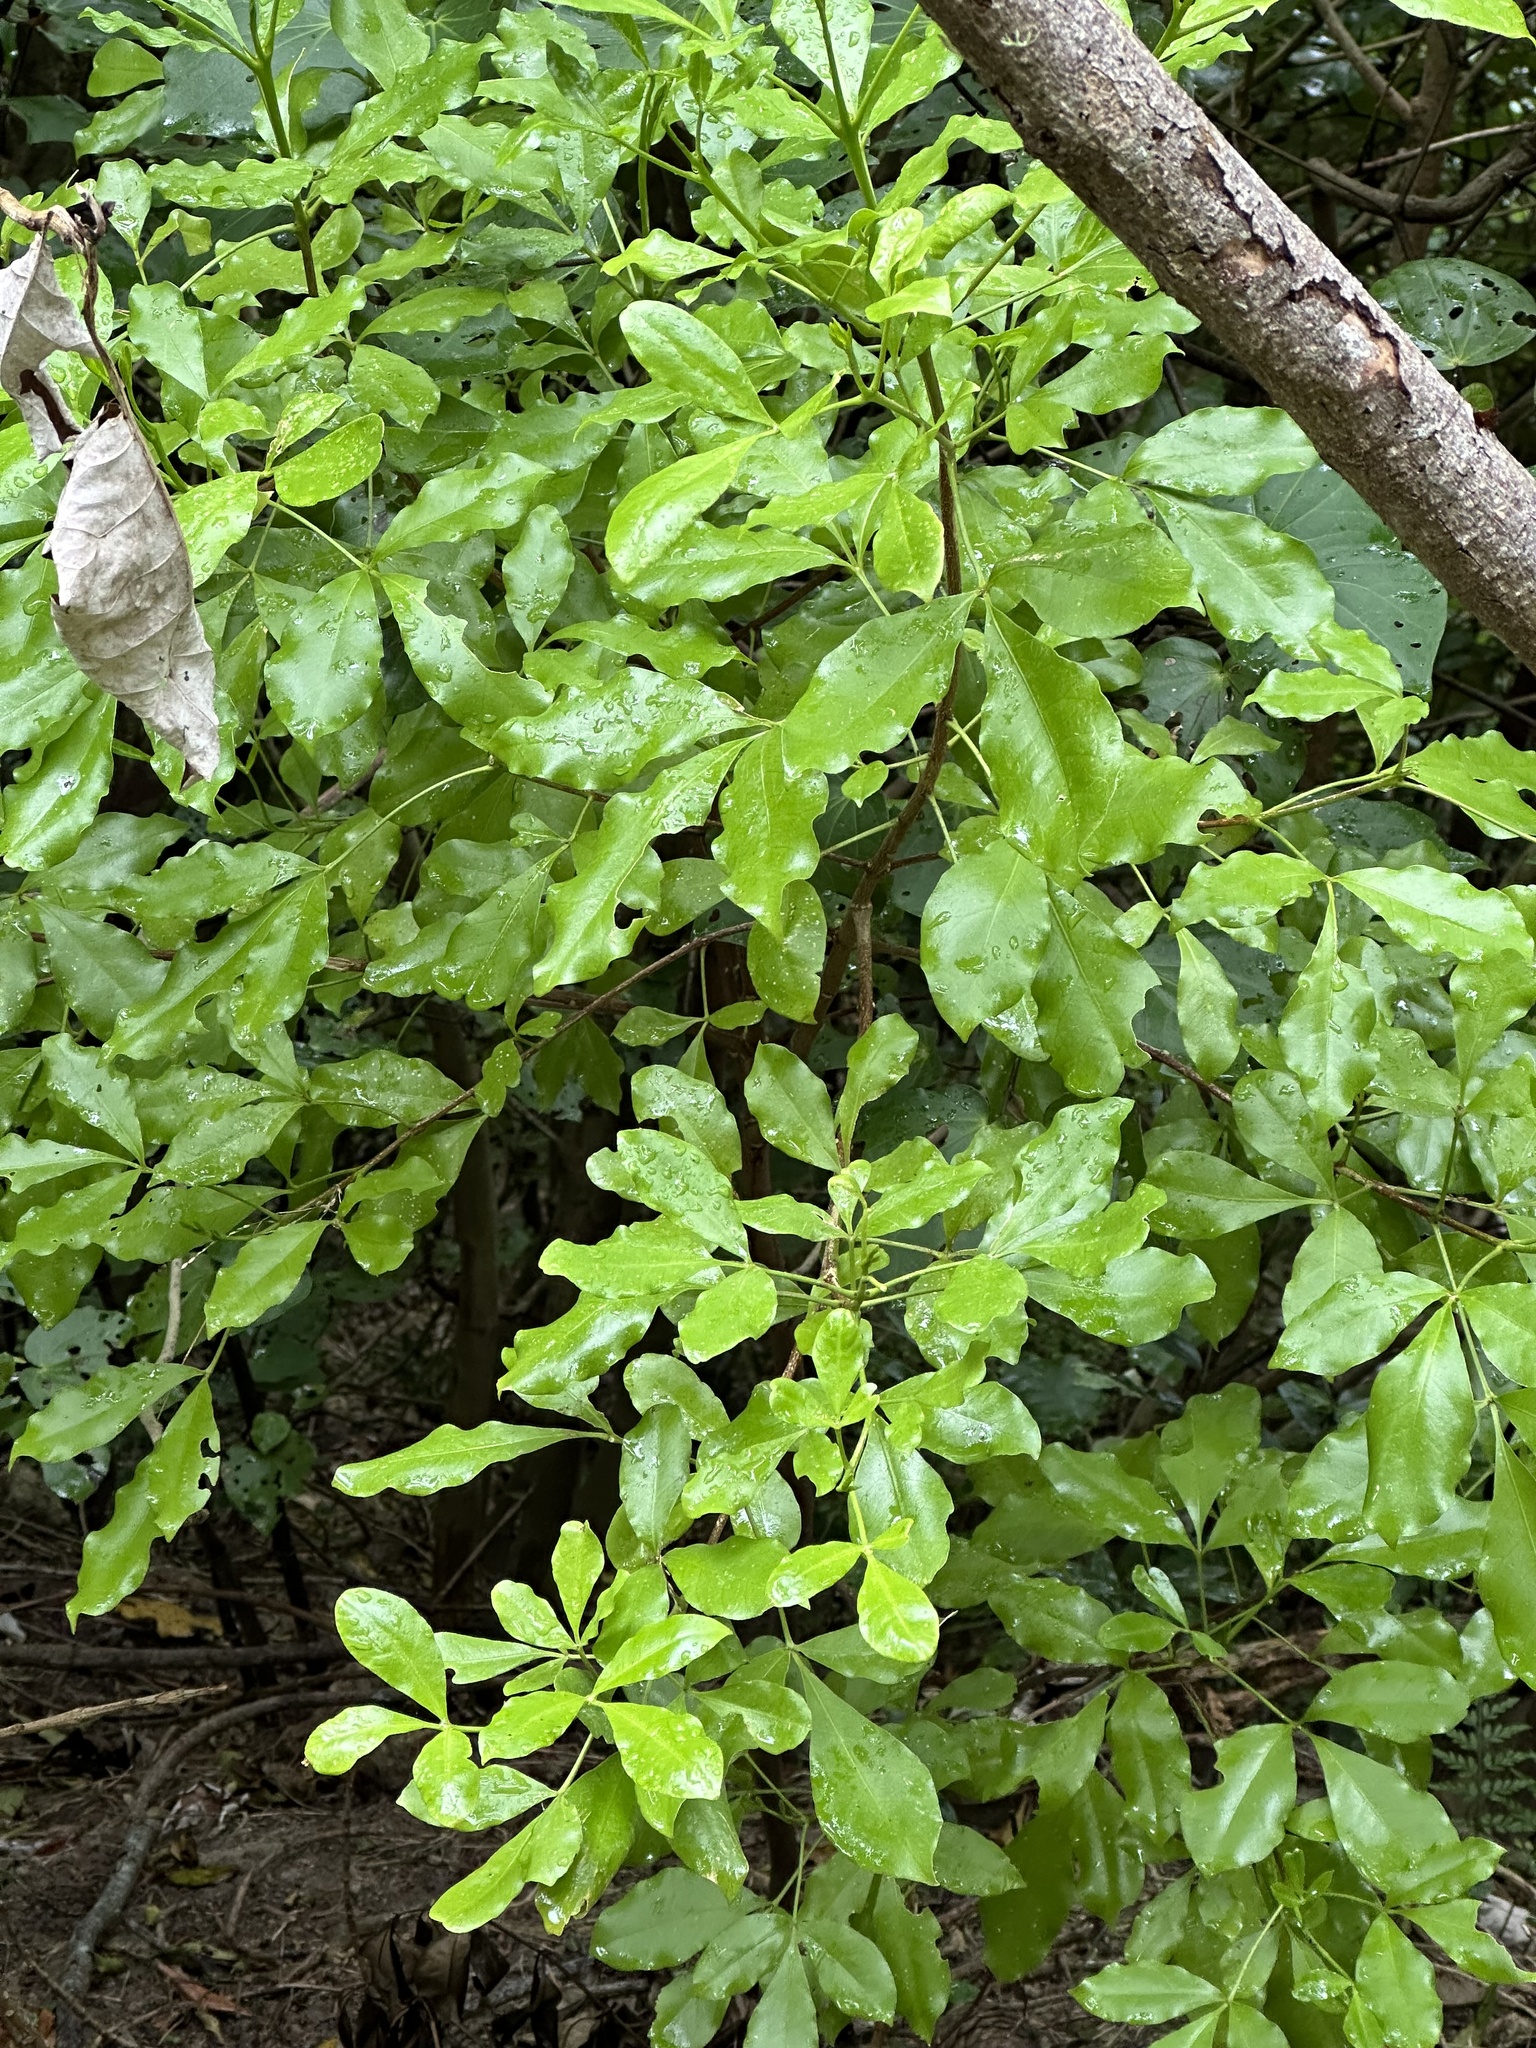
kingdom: Plantae
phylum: Tracheophyta
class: Magnoliopsida
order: Sapindales
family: Rutaceae
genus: Melicope
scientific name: Melicope ternata
